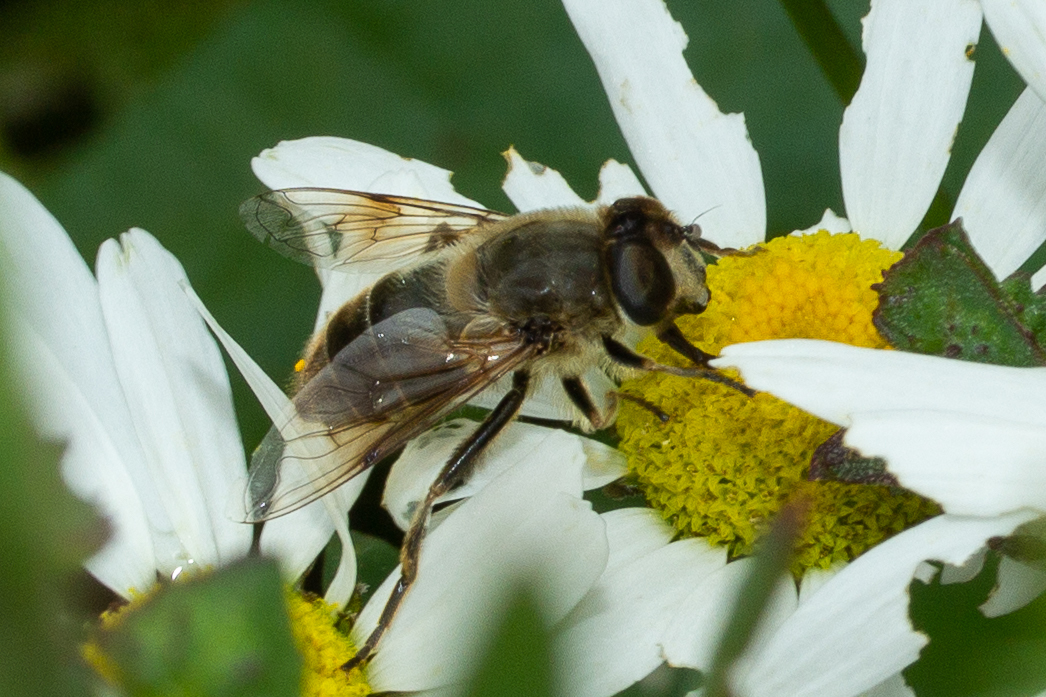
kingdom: Animalia
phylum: Arthropoda
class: Insecta
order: Diptera
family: Syrphidae
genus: Eristalis
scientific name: Eristalis tenax
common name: Drone fly
